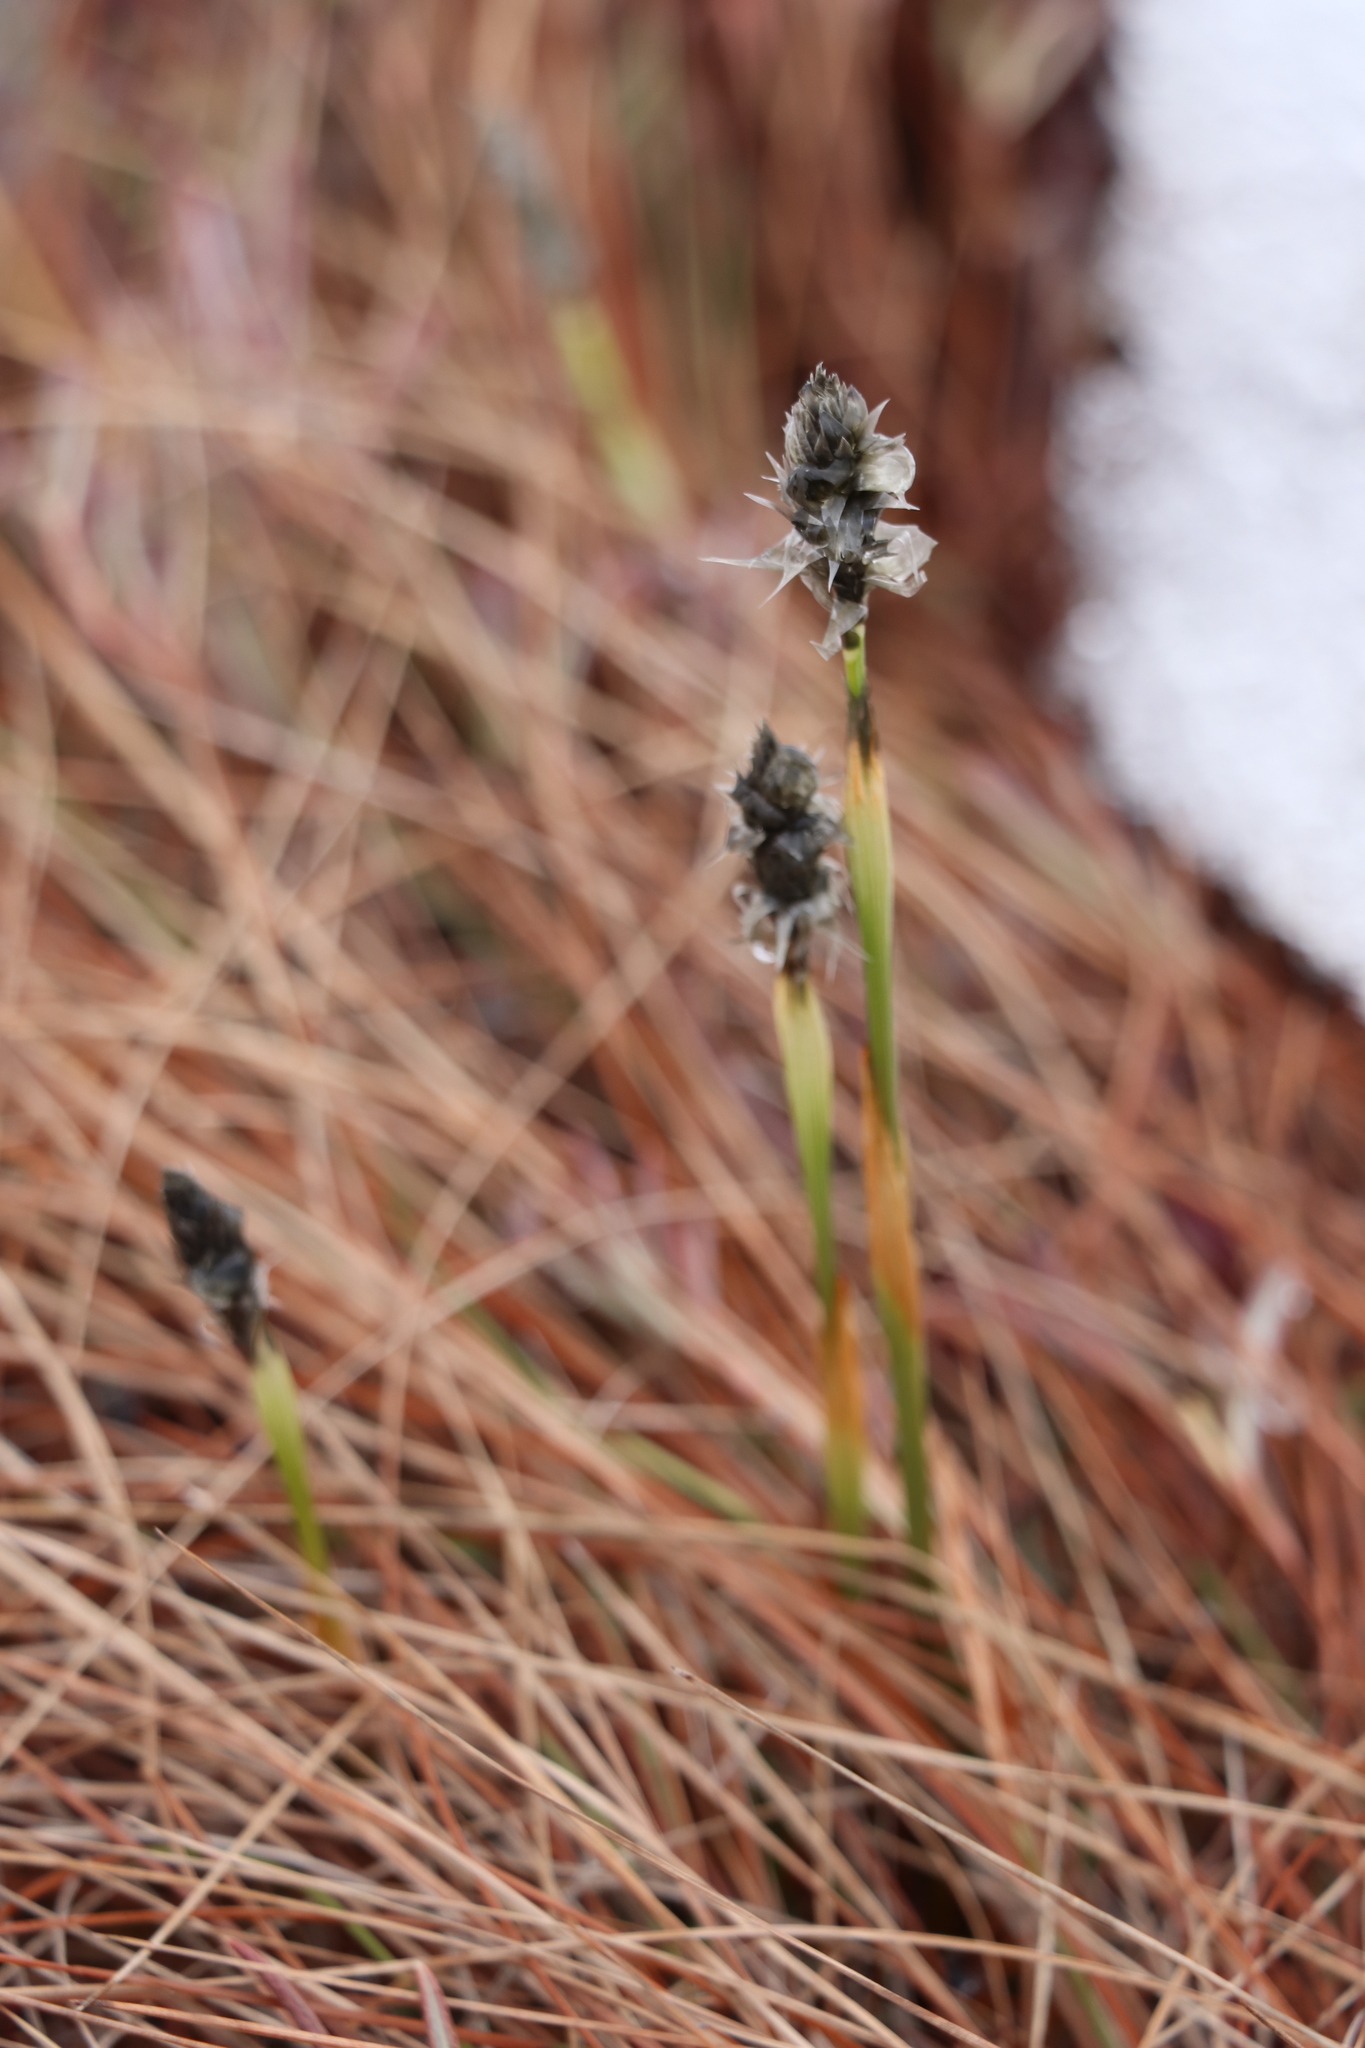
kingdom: Plantae
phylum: Tracheophyta
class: Liliopsida
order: Poales
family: Cyperaceae
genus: Eriophorum
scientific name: Eriophorum vaginatum
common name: Hare's-tail cottongrass
